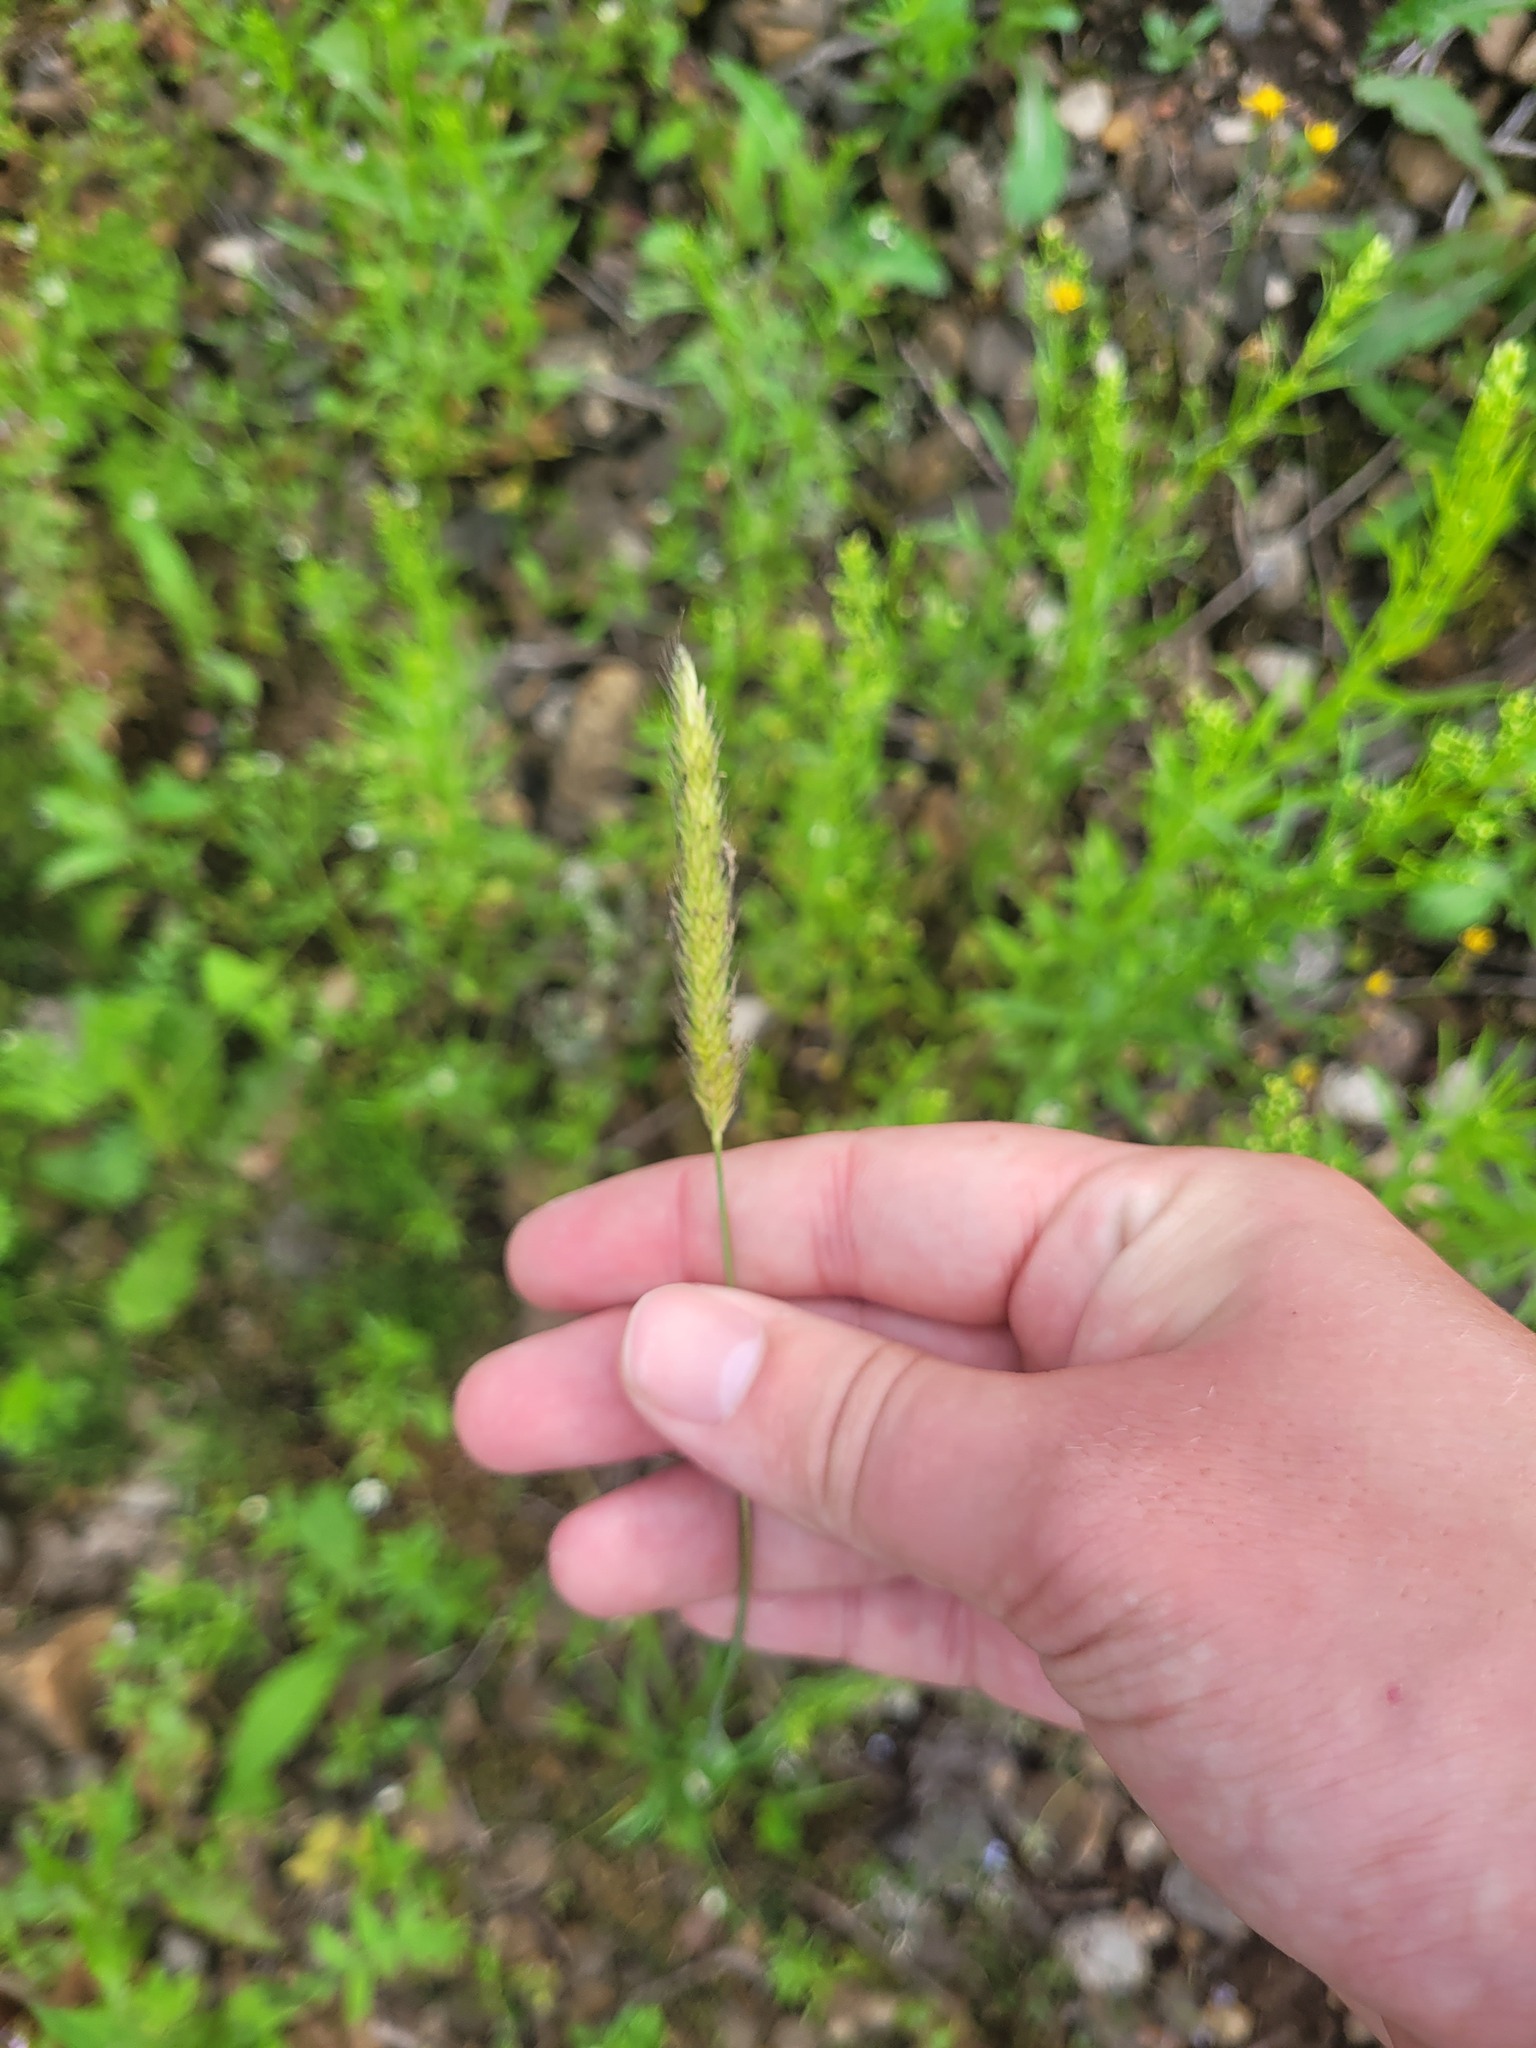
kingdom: Plantae
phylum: Tracheophyta
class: Liliopsida
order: Poales
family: Poaceae
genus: Alopecurus
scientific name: Alopecurus pratensis
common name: Meadow foxtail
